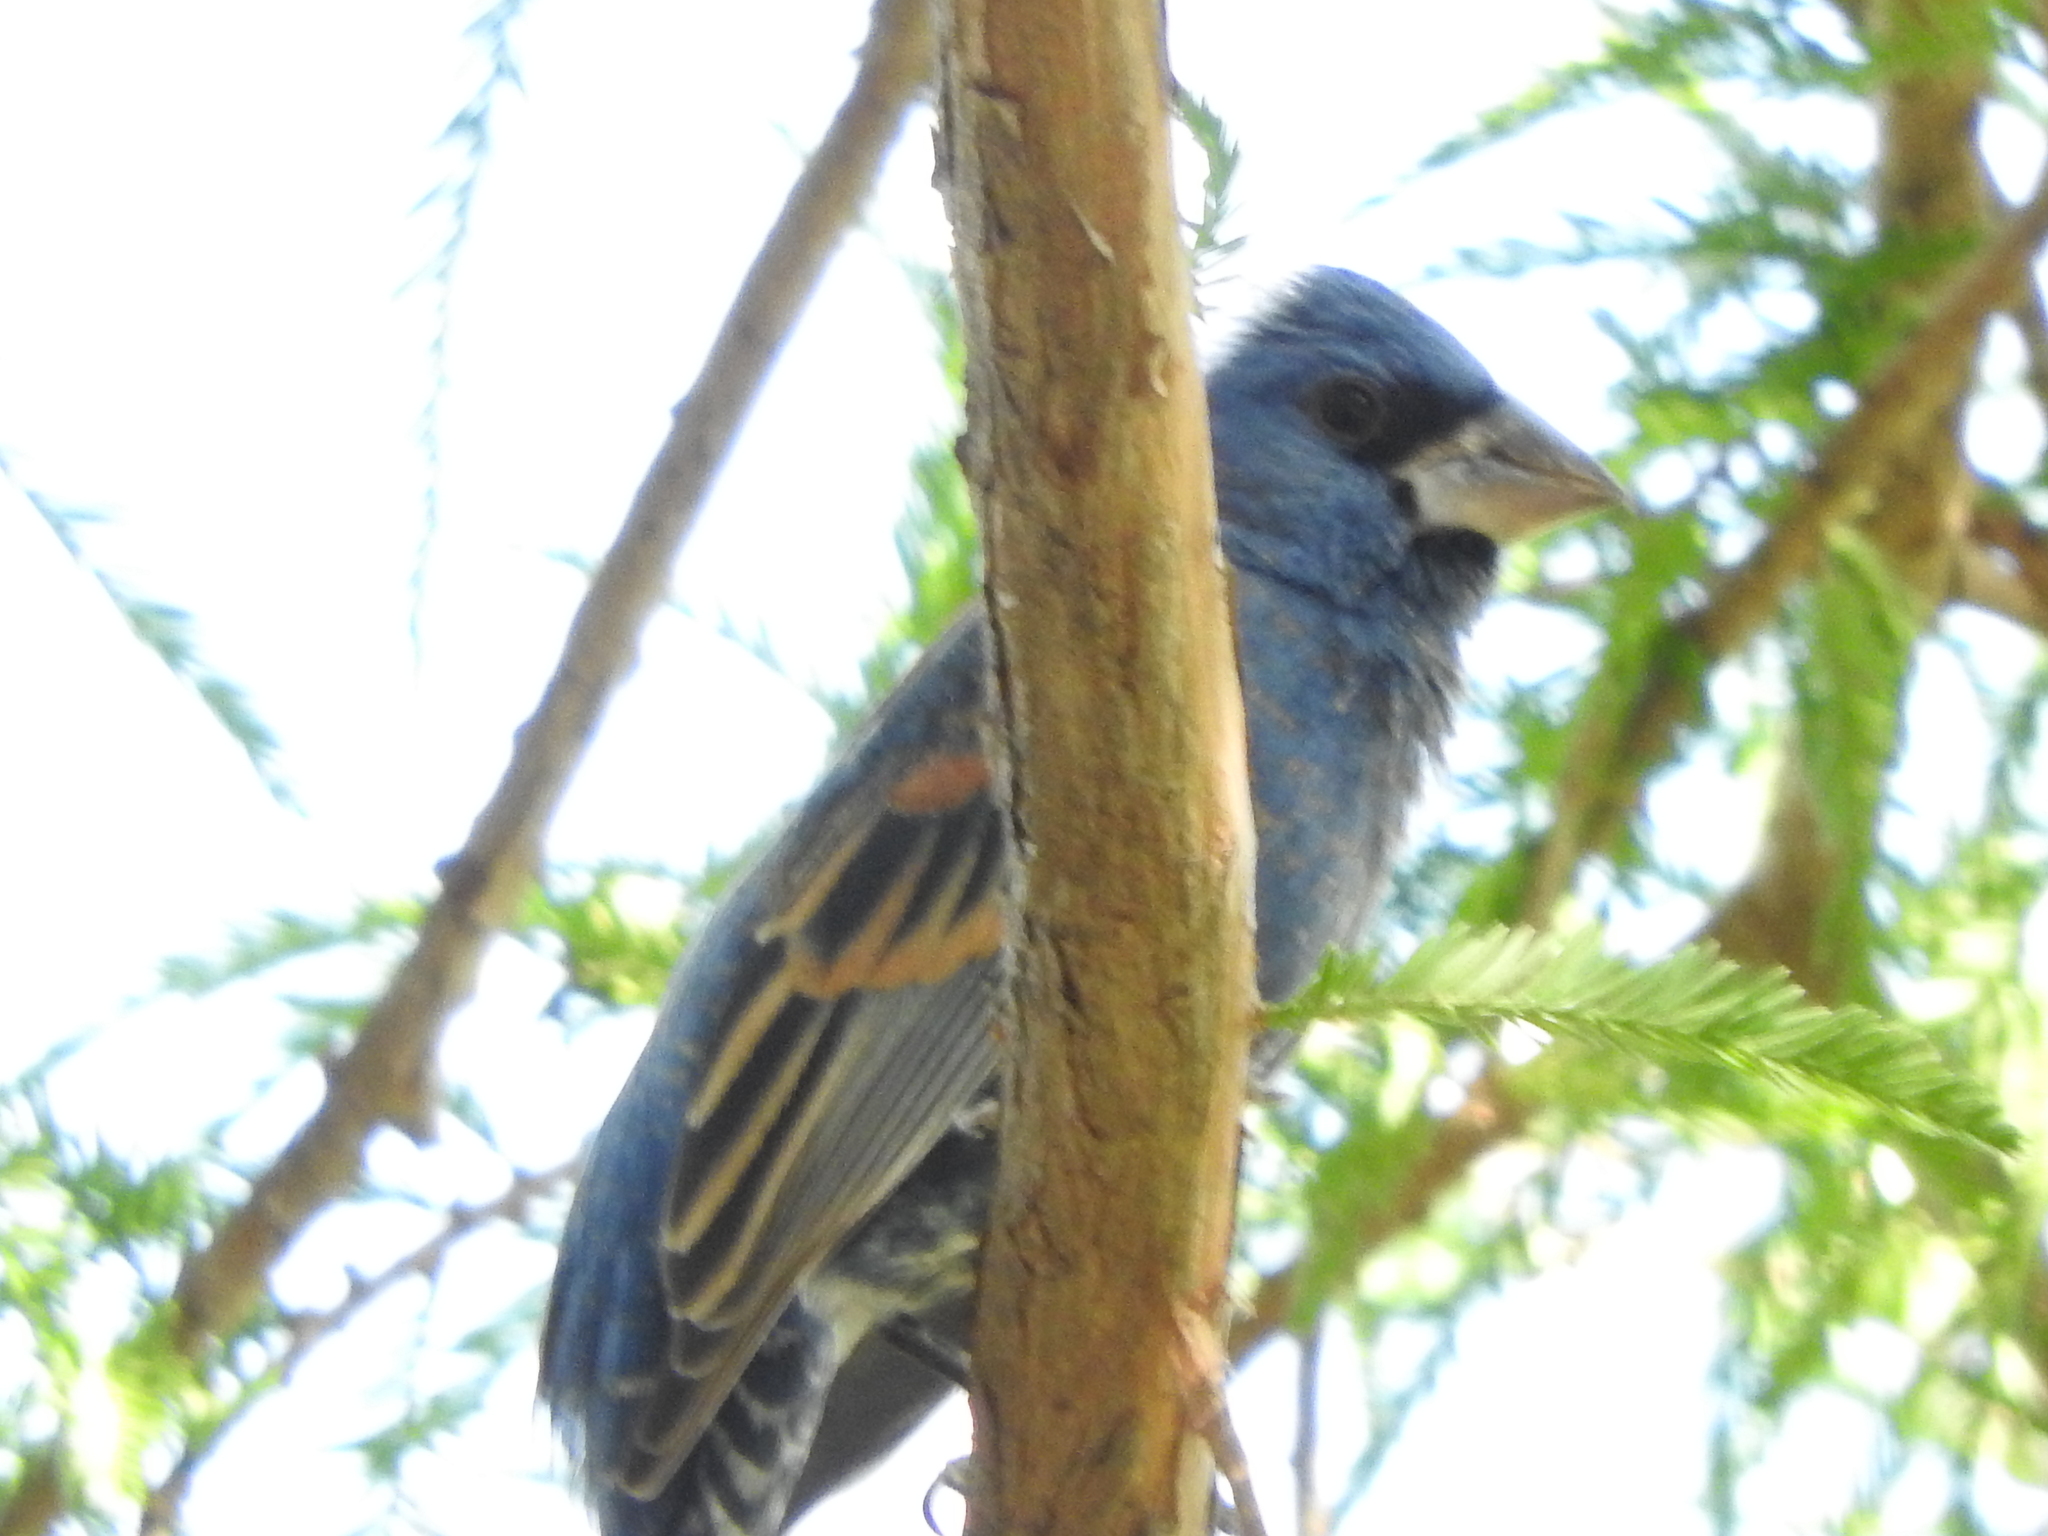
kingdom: Animalia
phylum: Chordata
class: Aves
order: Passeriformes
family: Cardinalidae
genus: Passerina
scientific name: Passerina caerulea
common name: Blue grosbeak
